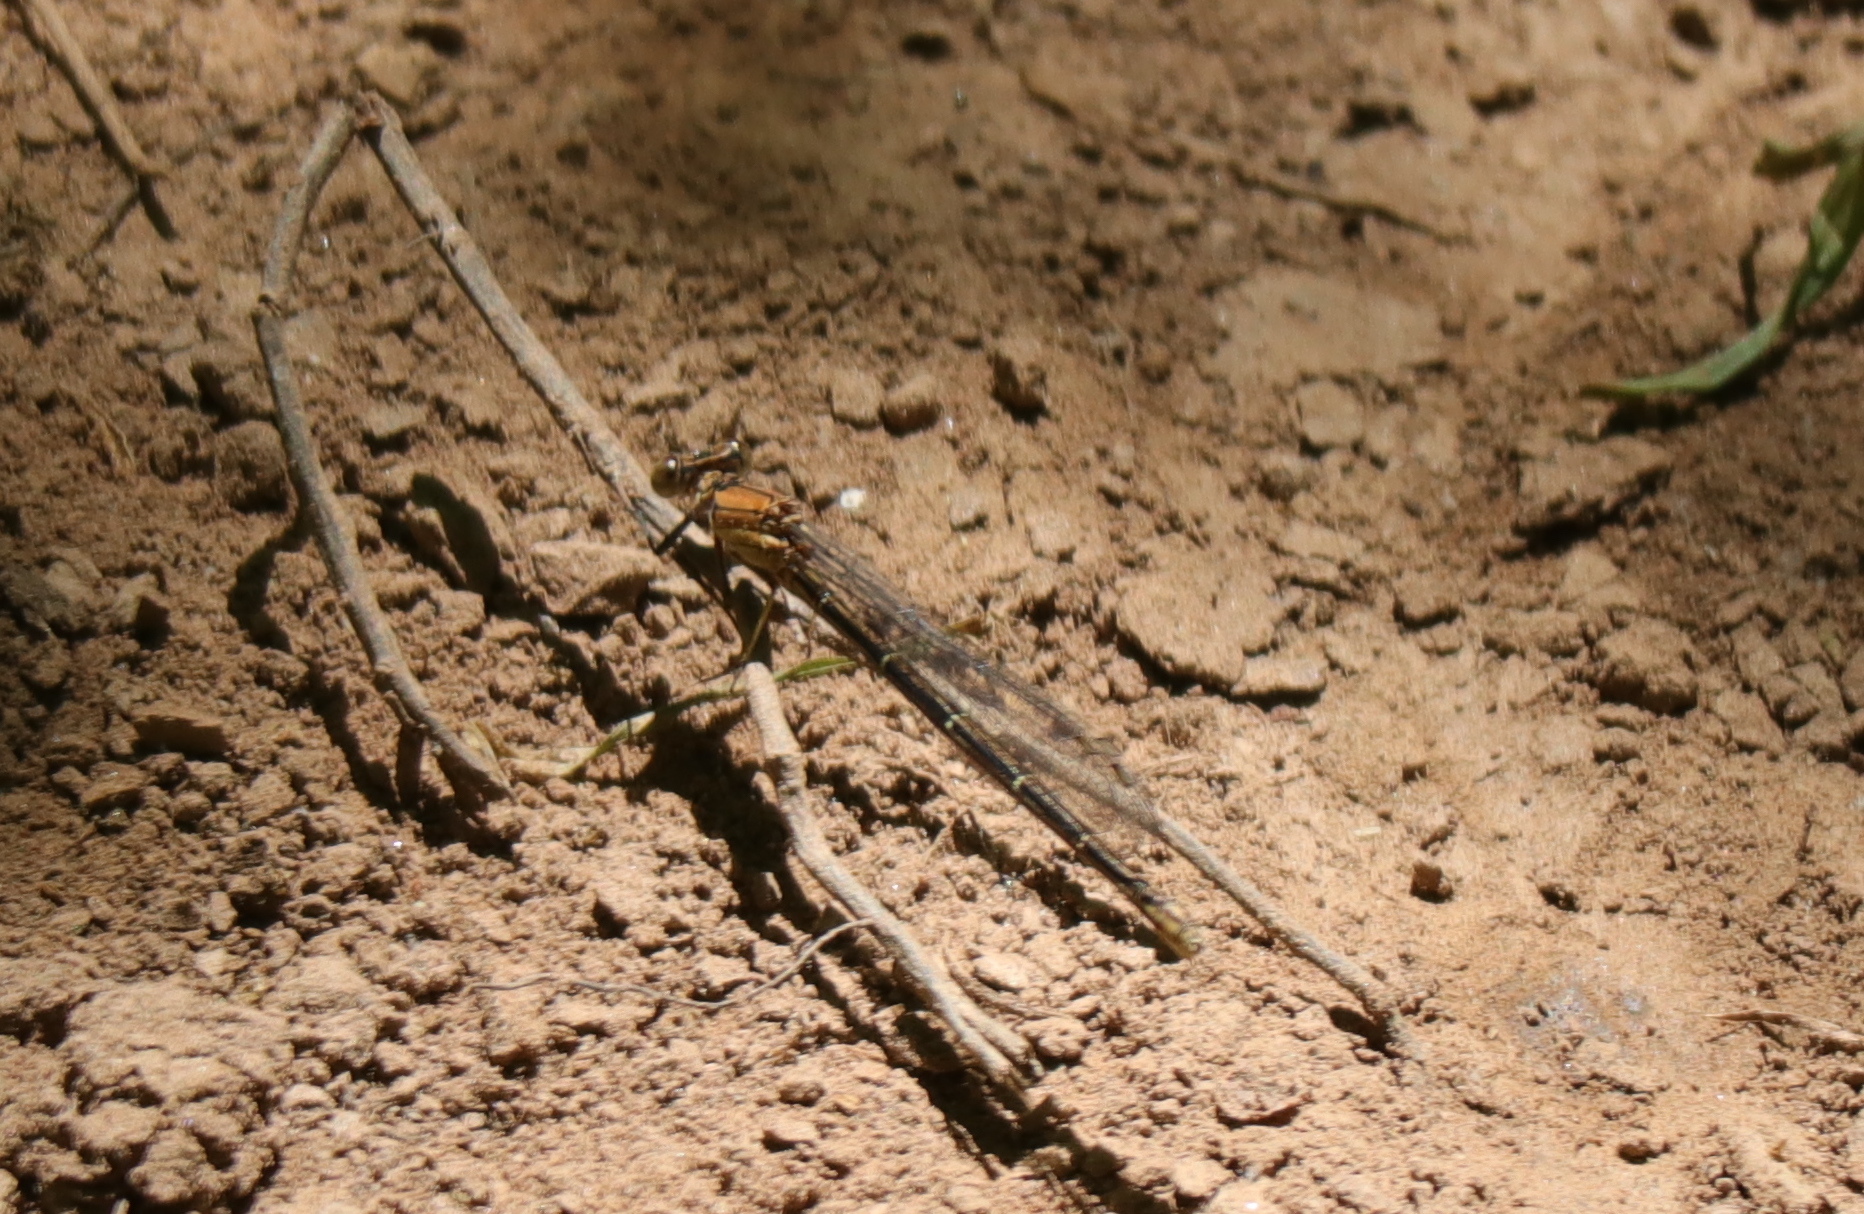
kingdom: Animalia
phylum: Arthropoda
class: Insecta
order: Odonata
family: Coenagrionidae
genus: Argia
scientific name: Argia moesta
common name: Powdered dancer
